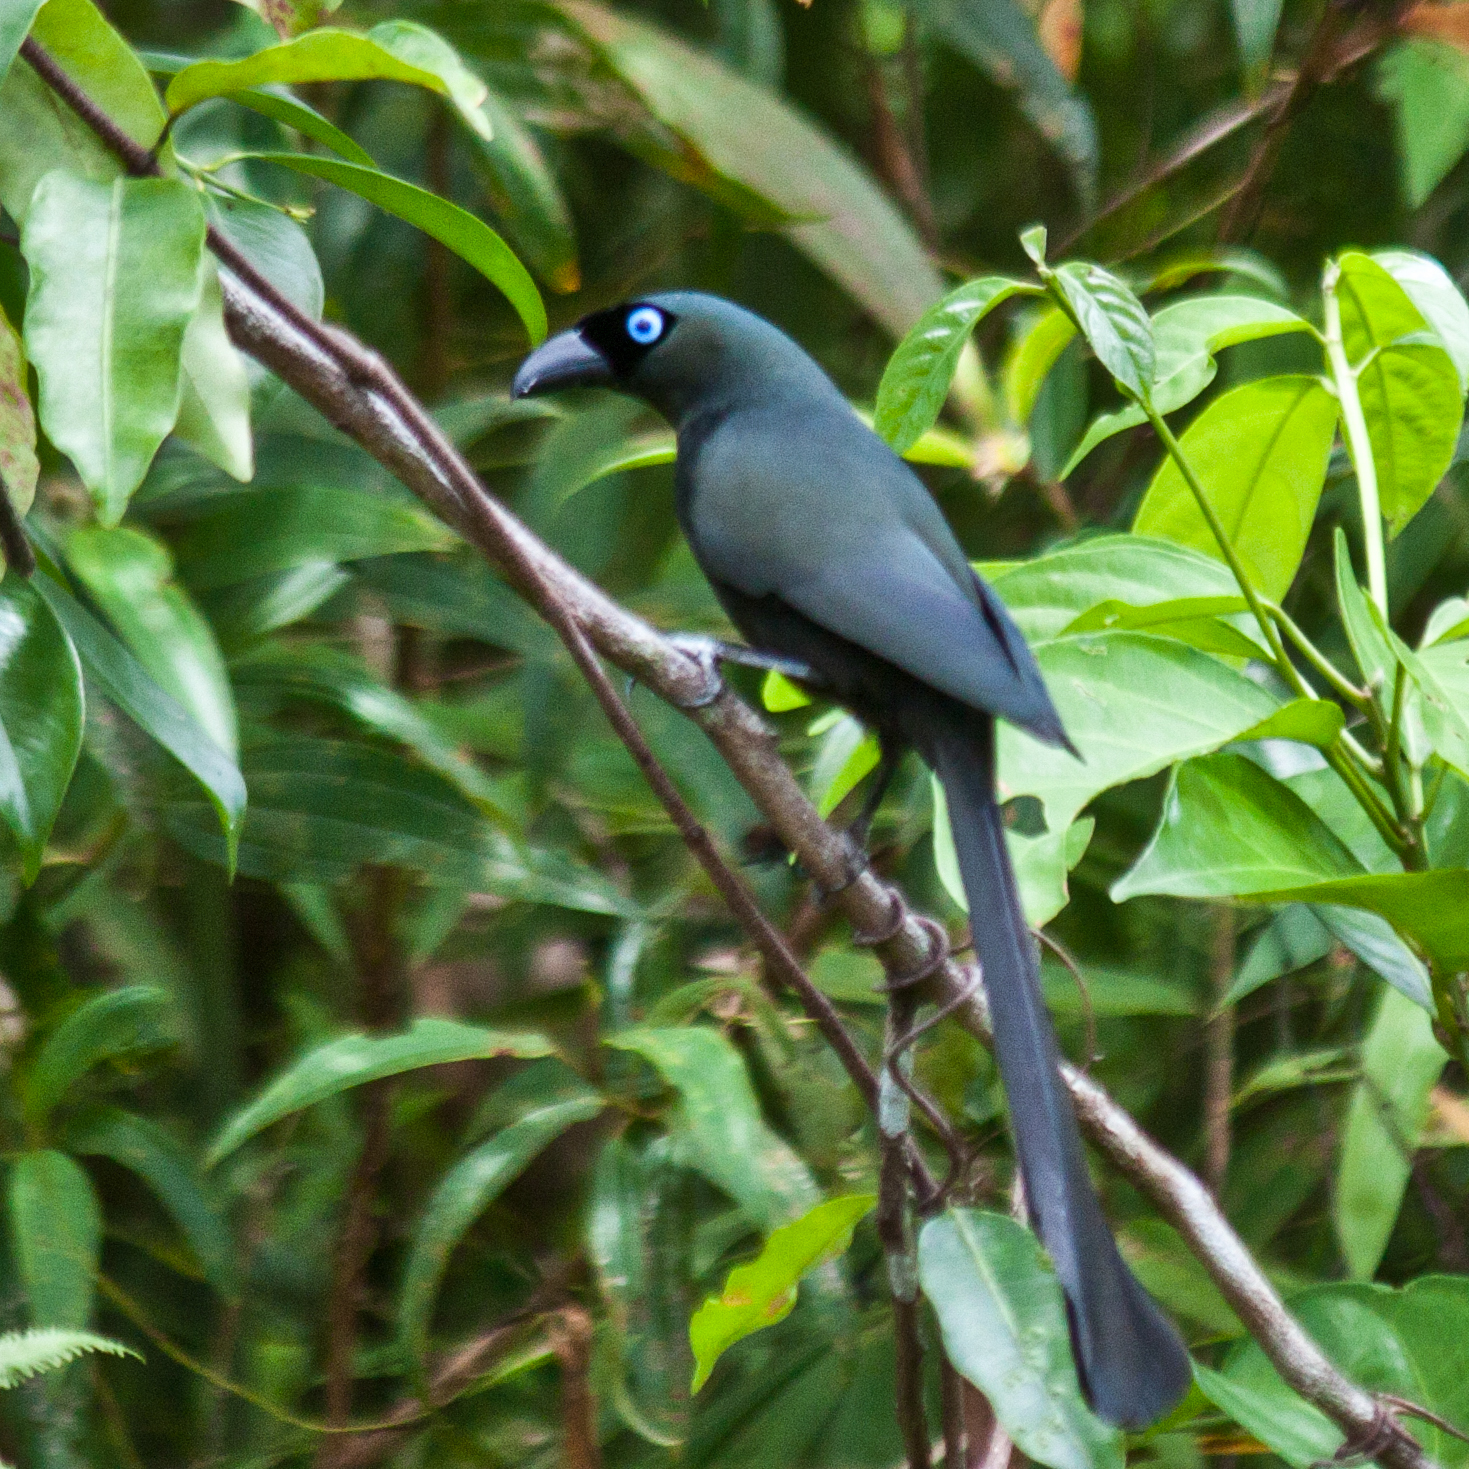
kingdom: Animalia
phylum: Chordata
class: Aves
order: Passeriformes
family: Corvidae
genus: Crypsirina
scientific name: Crypsirina temia
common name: Racket-tailed treepie
